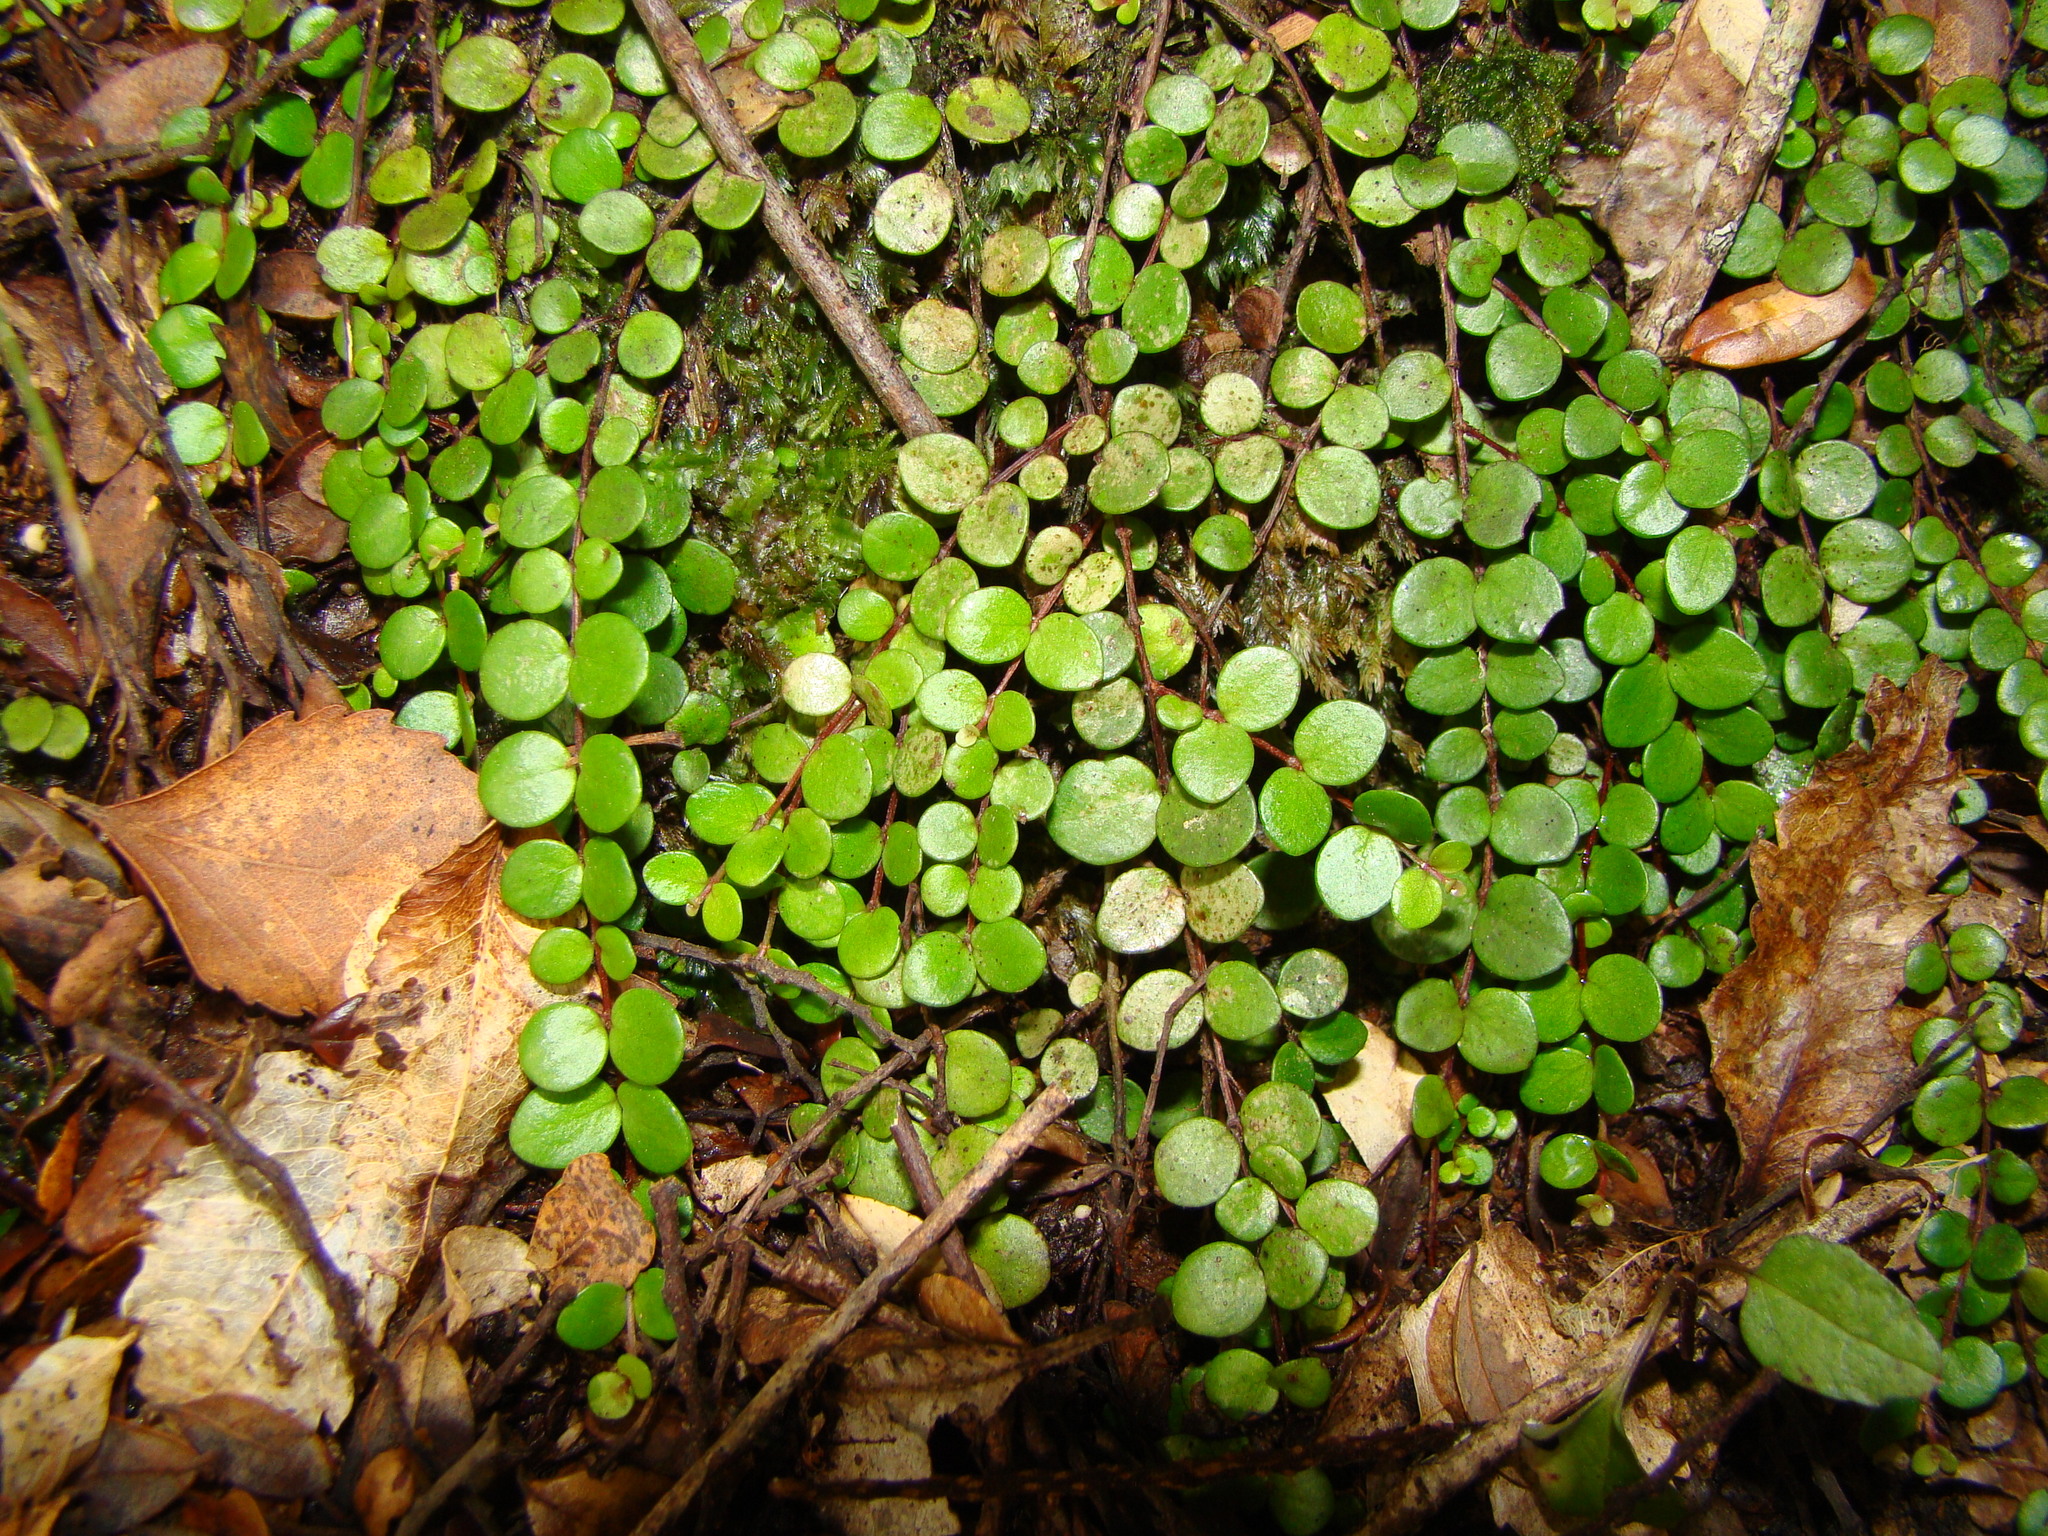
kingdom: Plantae
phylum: Tracheophyta
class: Magnoliopsida
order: Myrtales
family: Myrtaceae
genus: Metrosideros
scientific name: Metrosideros perforata
